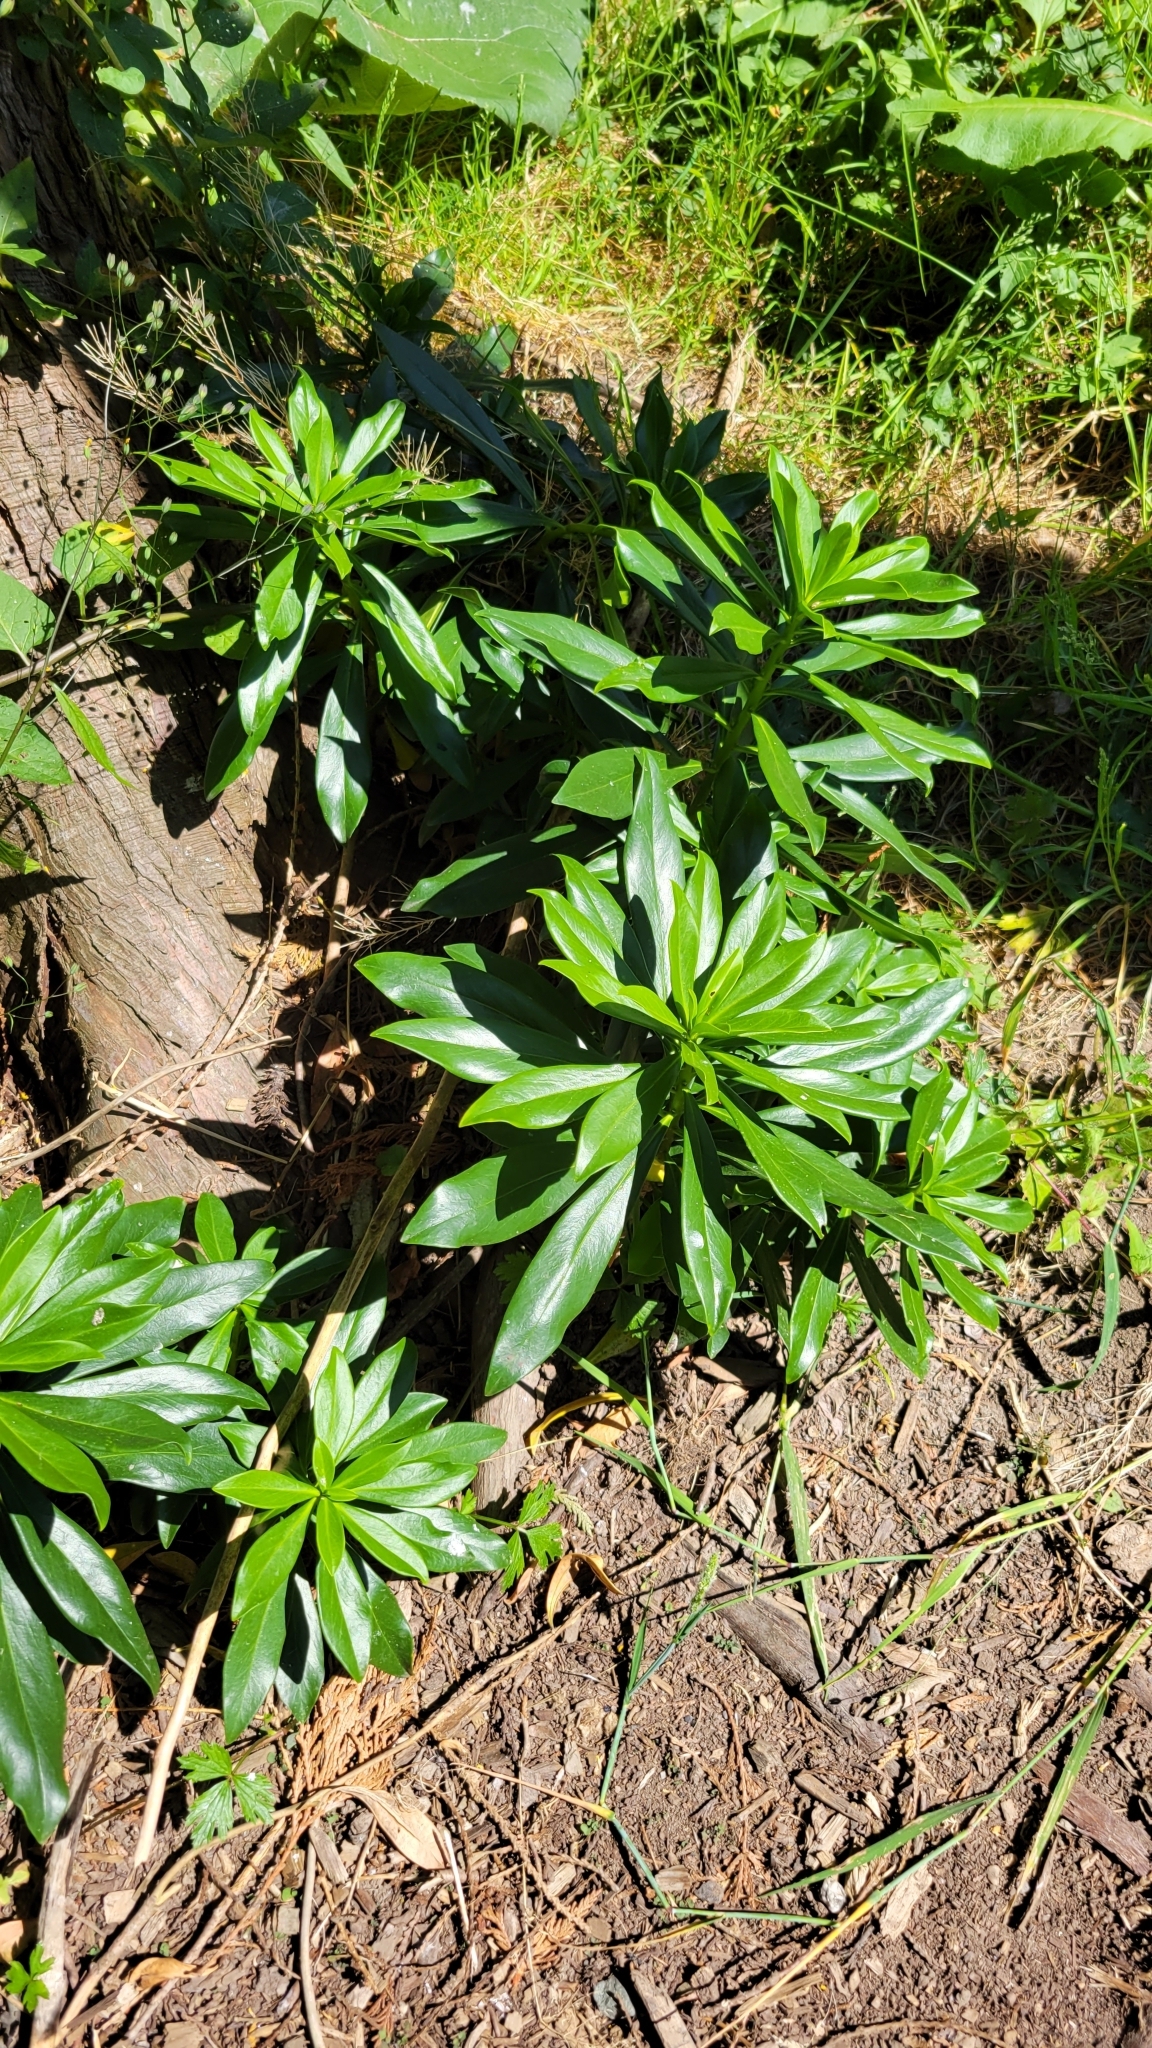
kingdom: Plantae
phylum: Tracheophyta
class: Magnoliopsida
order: Malvales
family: Thymelaeaceae
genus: Daphne
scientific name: Daphne laureola
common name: Spurge-laurel
